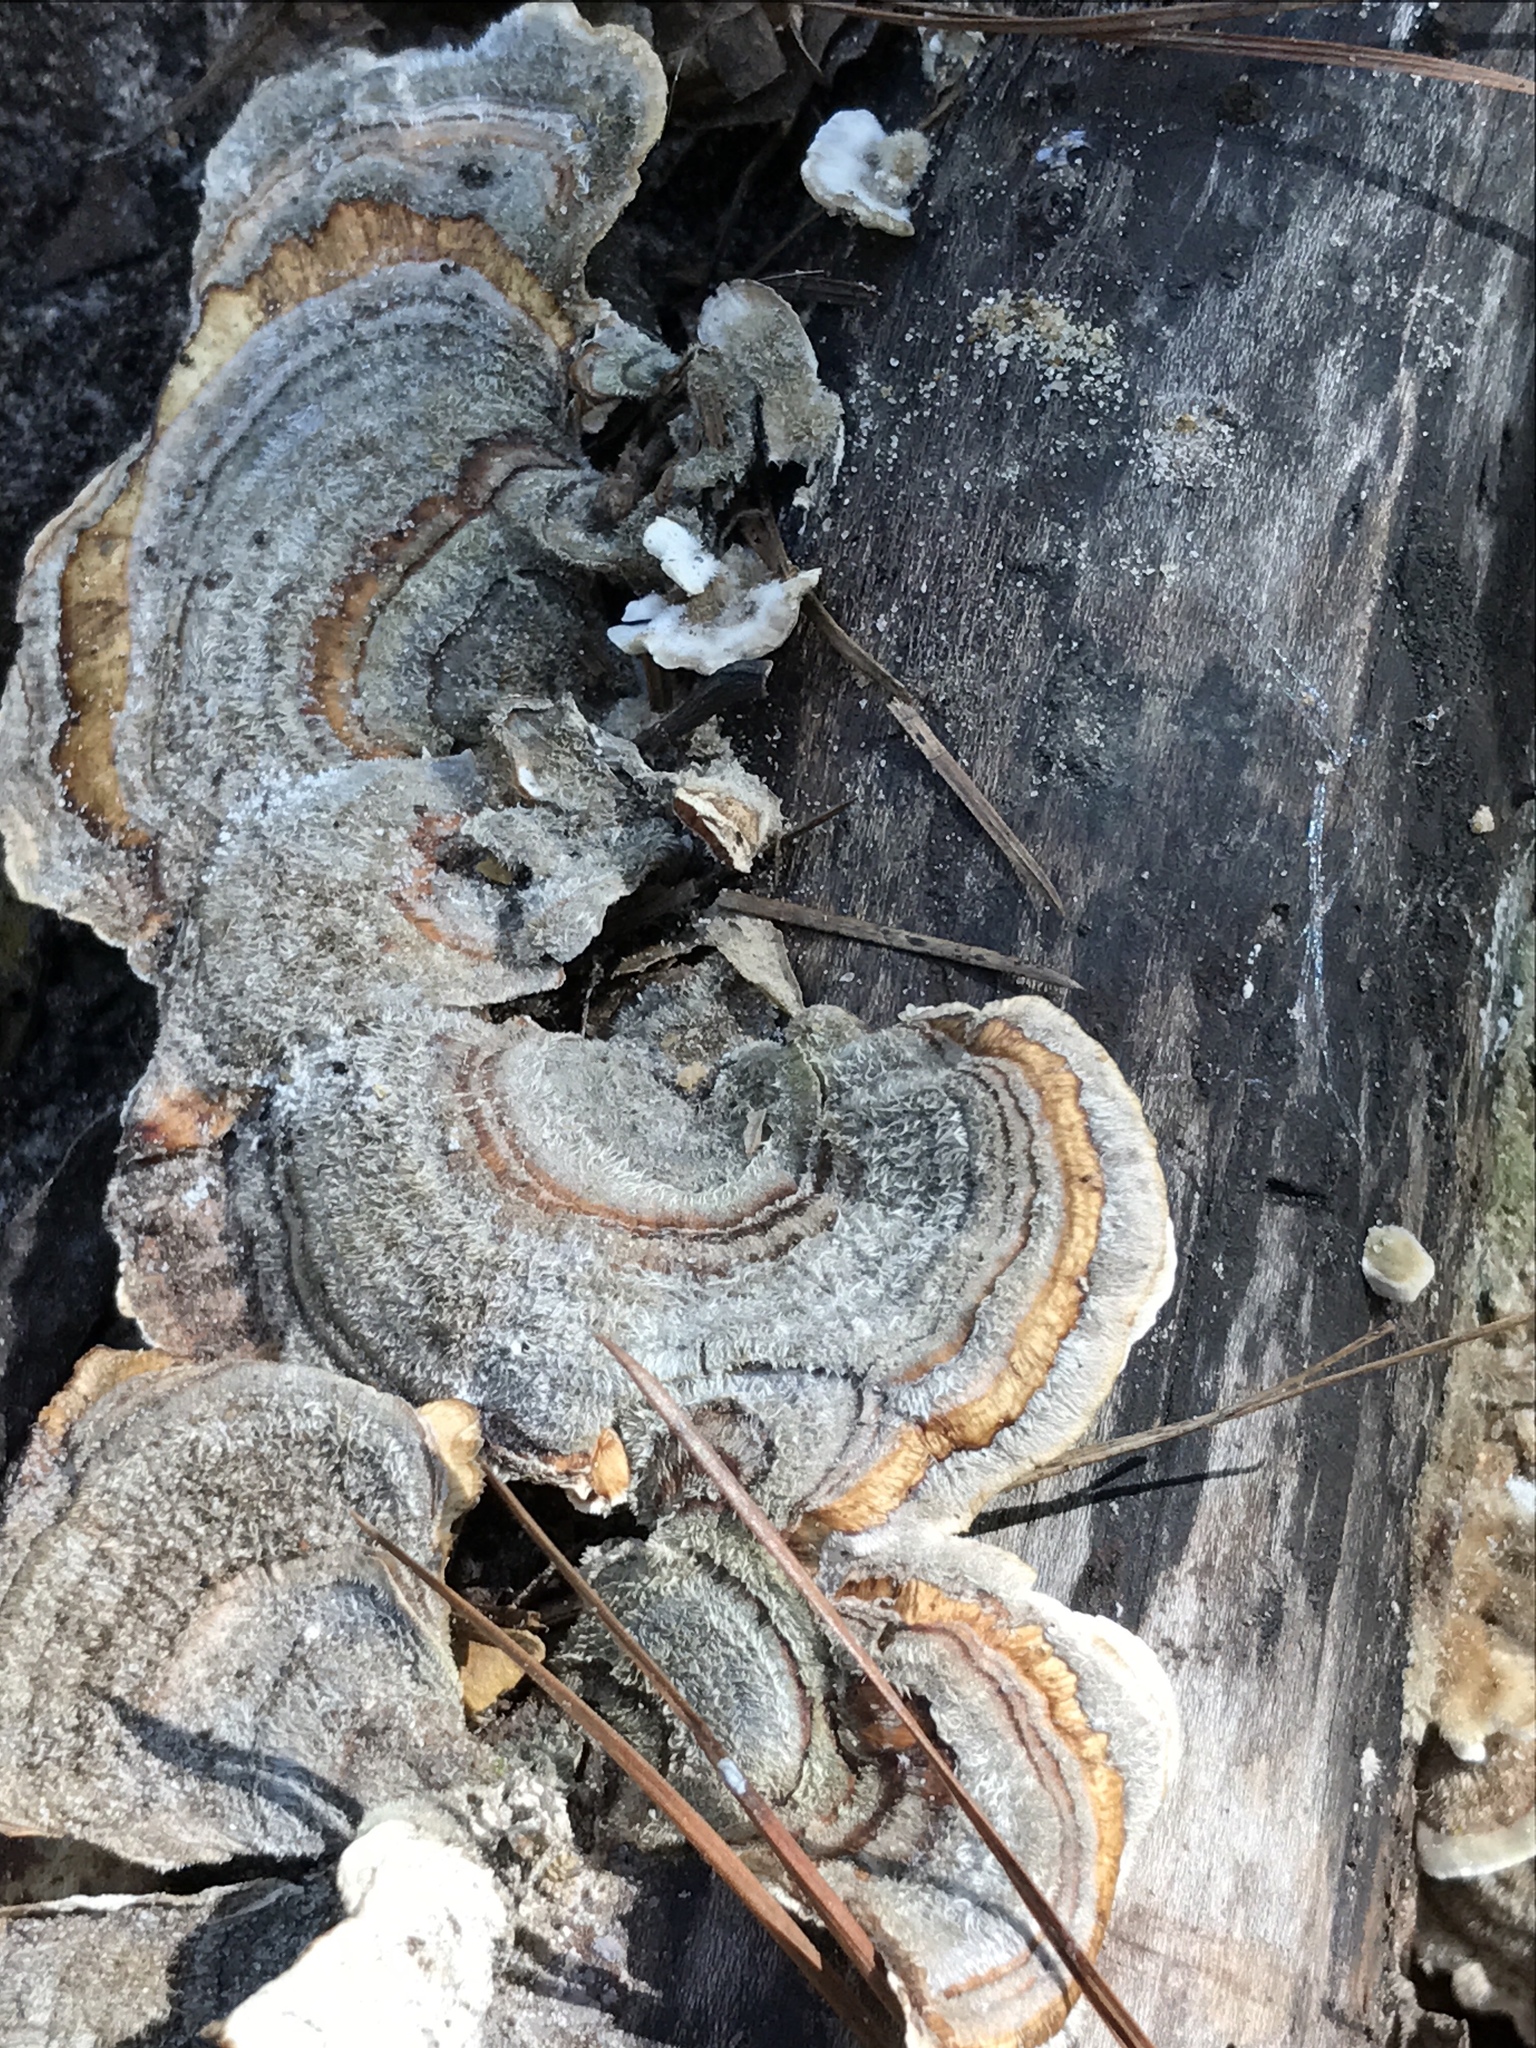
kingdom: Fungi
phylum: Basidiomycota
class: Agaricomycetes
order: Polyporales
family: Polyporaceae
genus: Trametes
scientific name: Trametes versicolor
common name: Turkeytail
